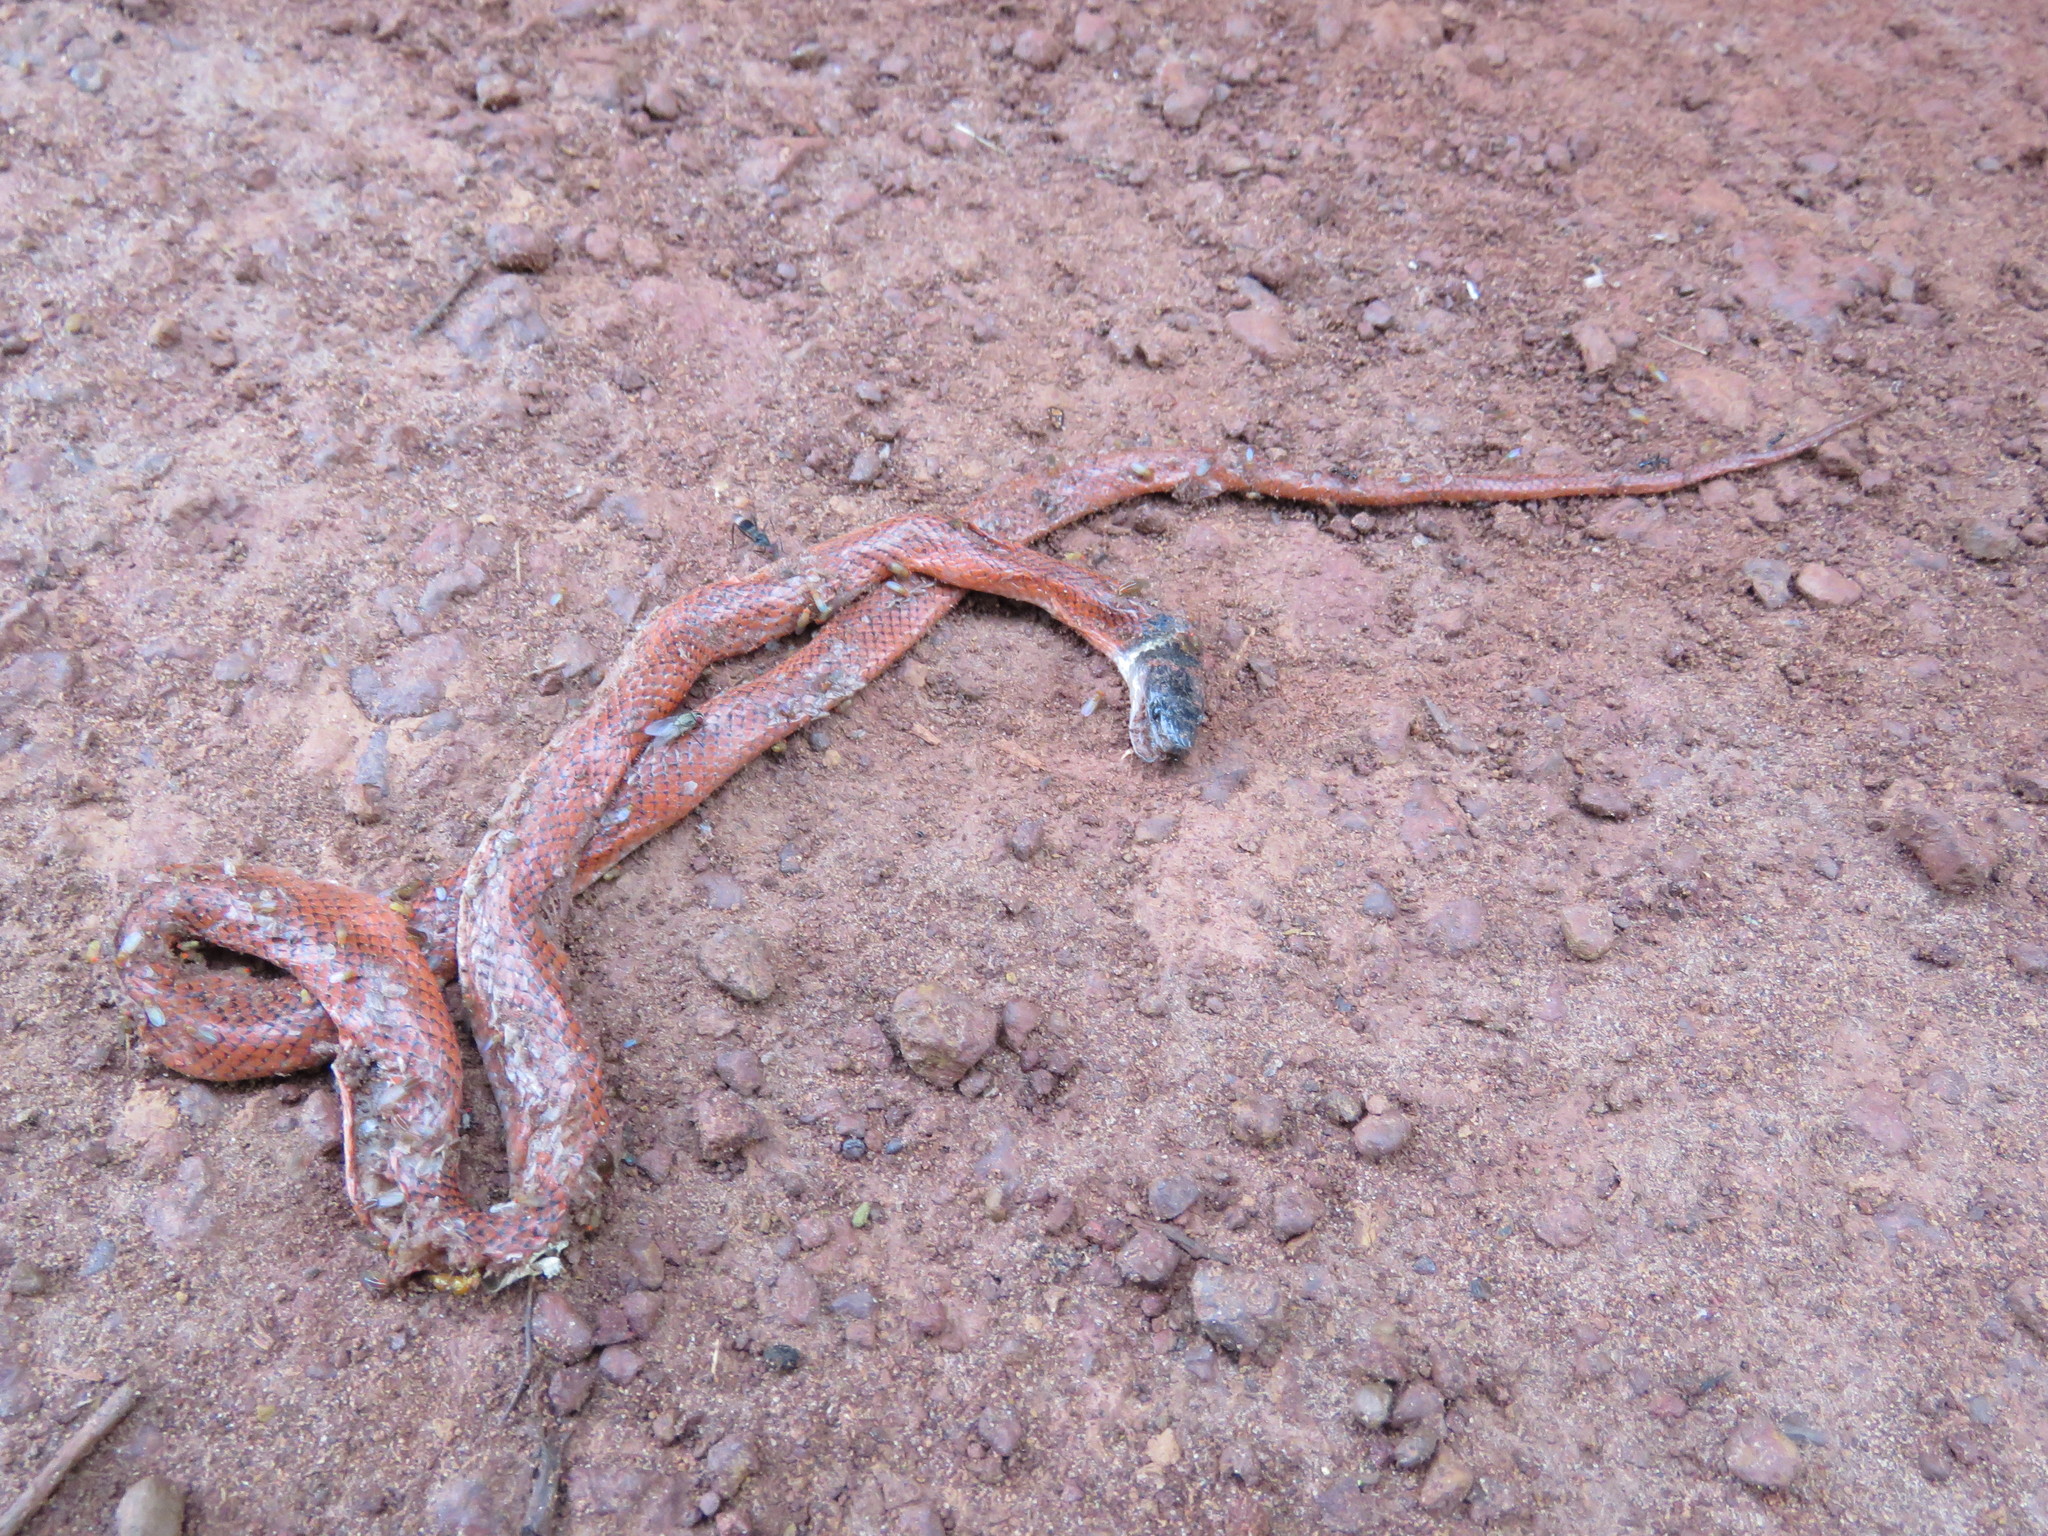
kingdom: Animalia
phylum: Chordata
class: Squamata
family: Colubridae
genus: Oxyrhopus
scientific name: Oxyrhopus melanogenys
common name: Tschudi's false coral snake
